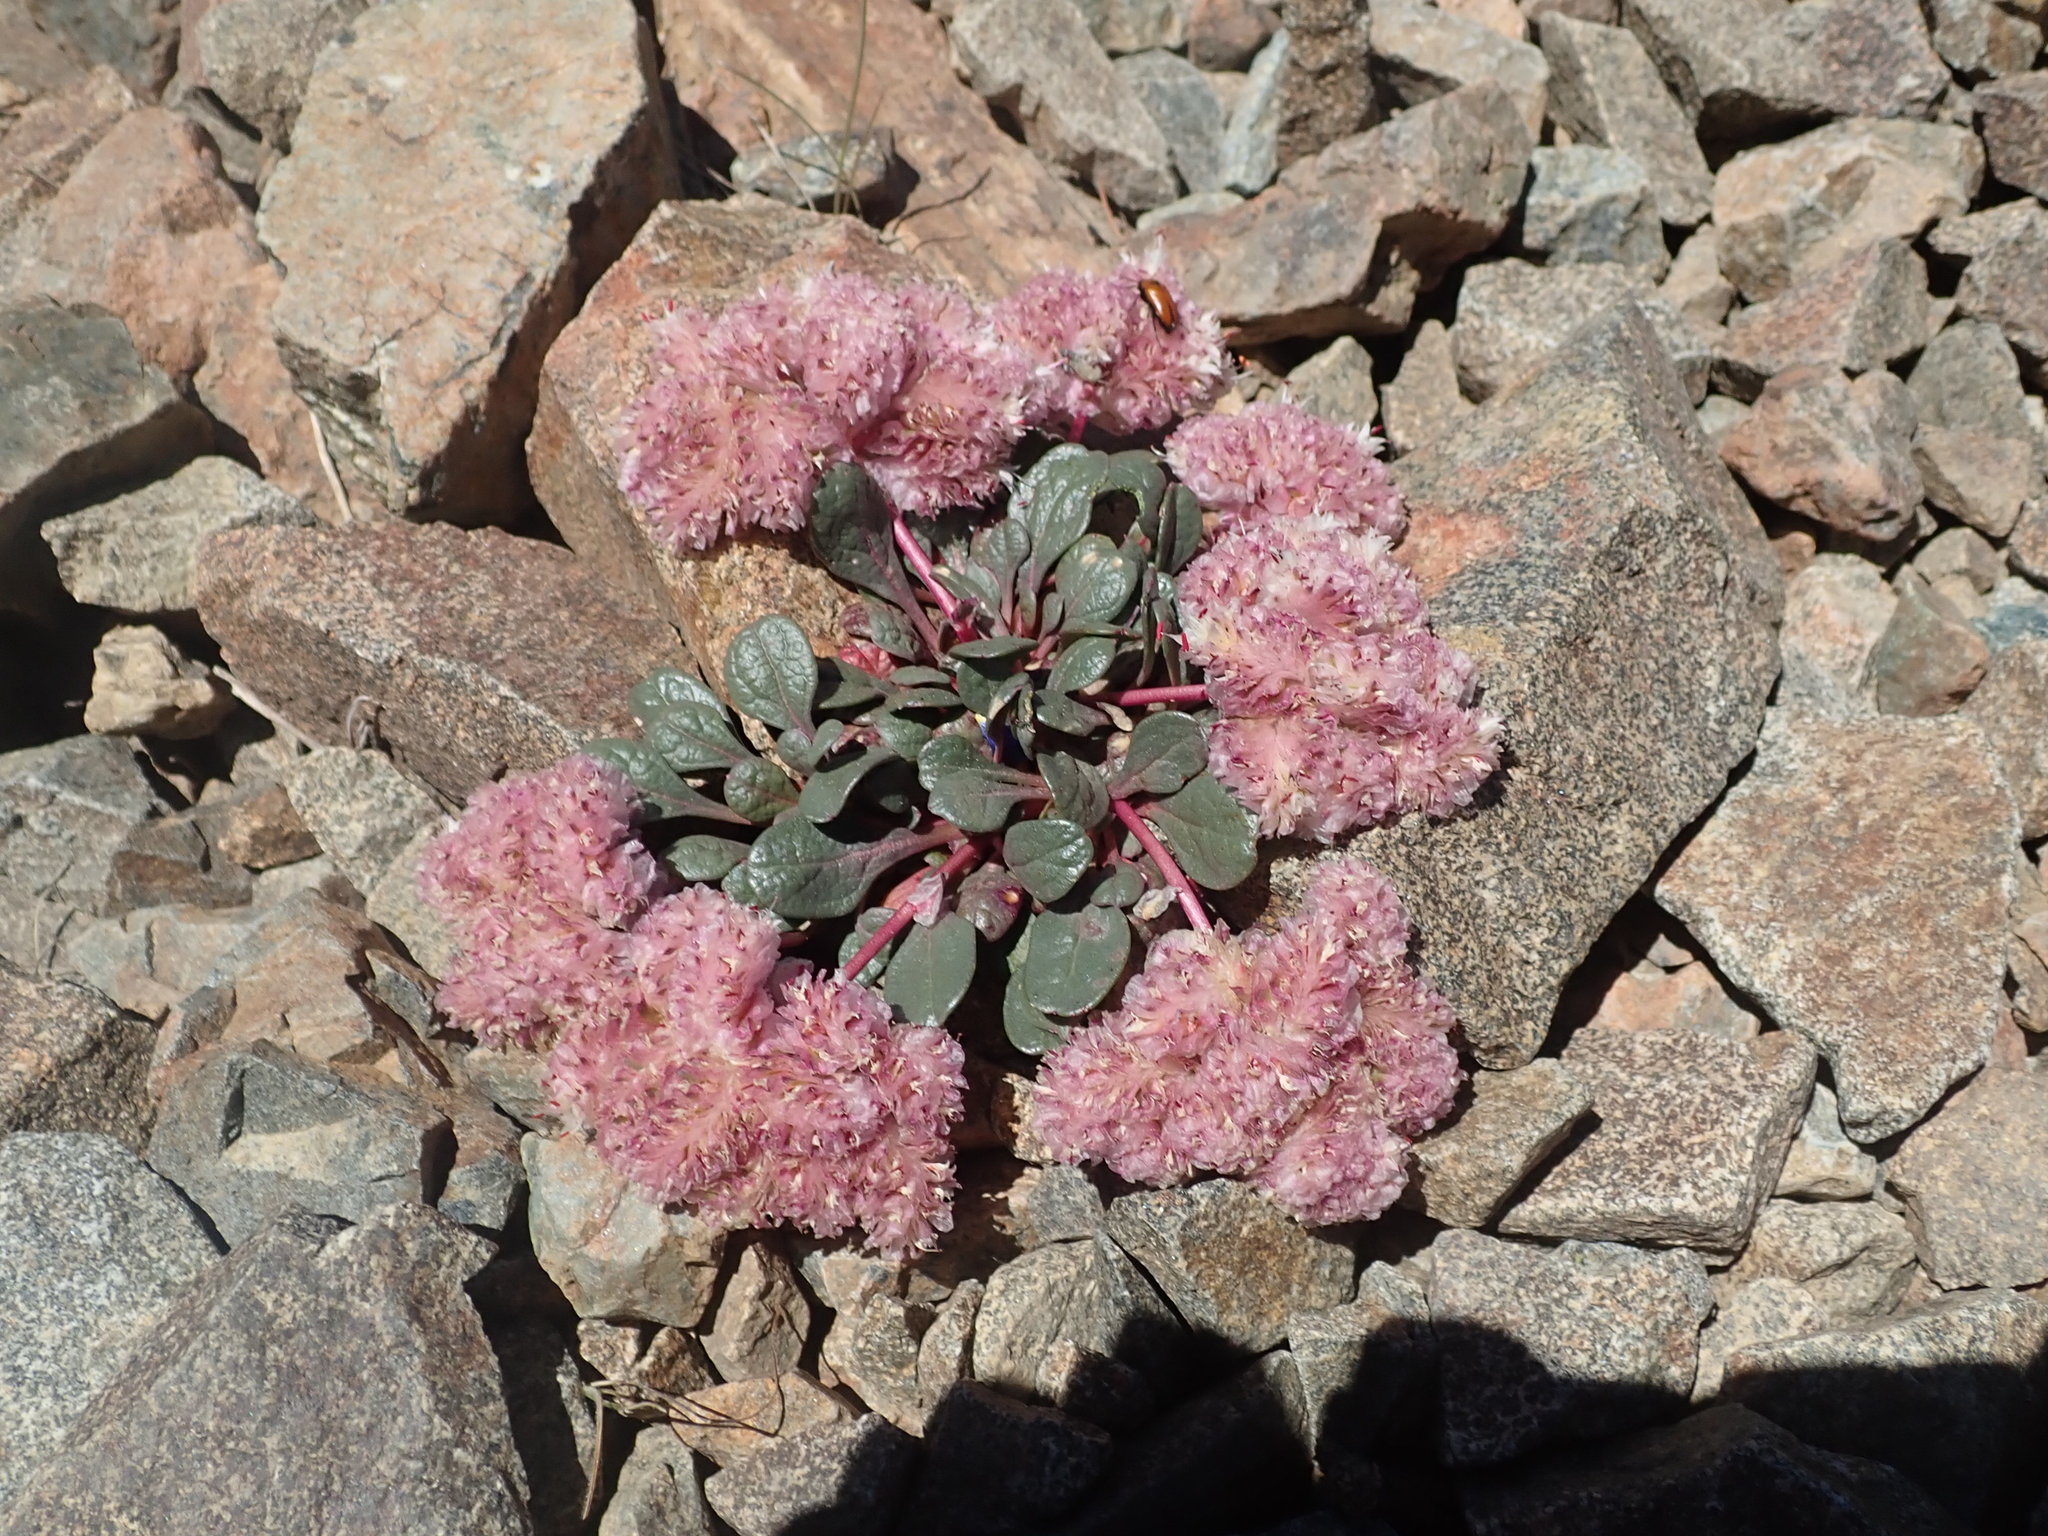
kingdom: Plantae
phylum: Tracheophyta
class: Magnoliopsida
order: Caryophyllales
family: Montiaceae
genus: Calyptridium
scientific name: Calyptridium umbellatum
